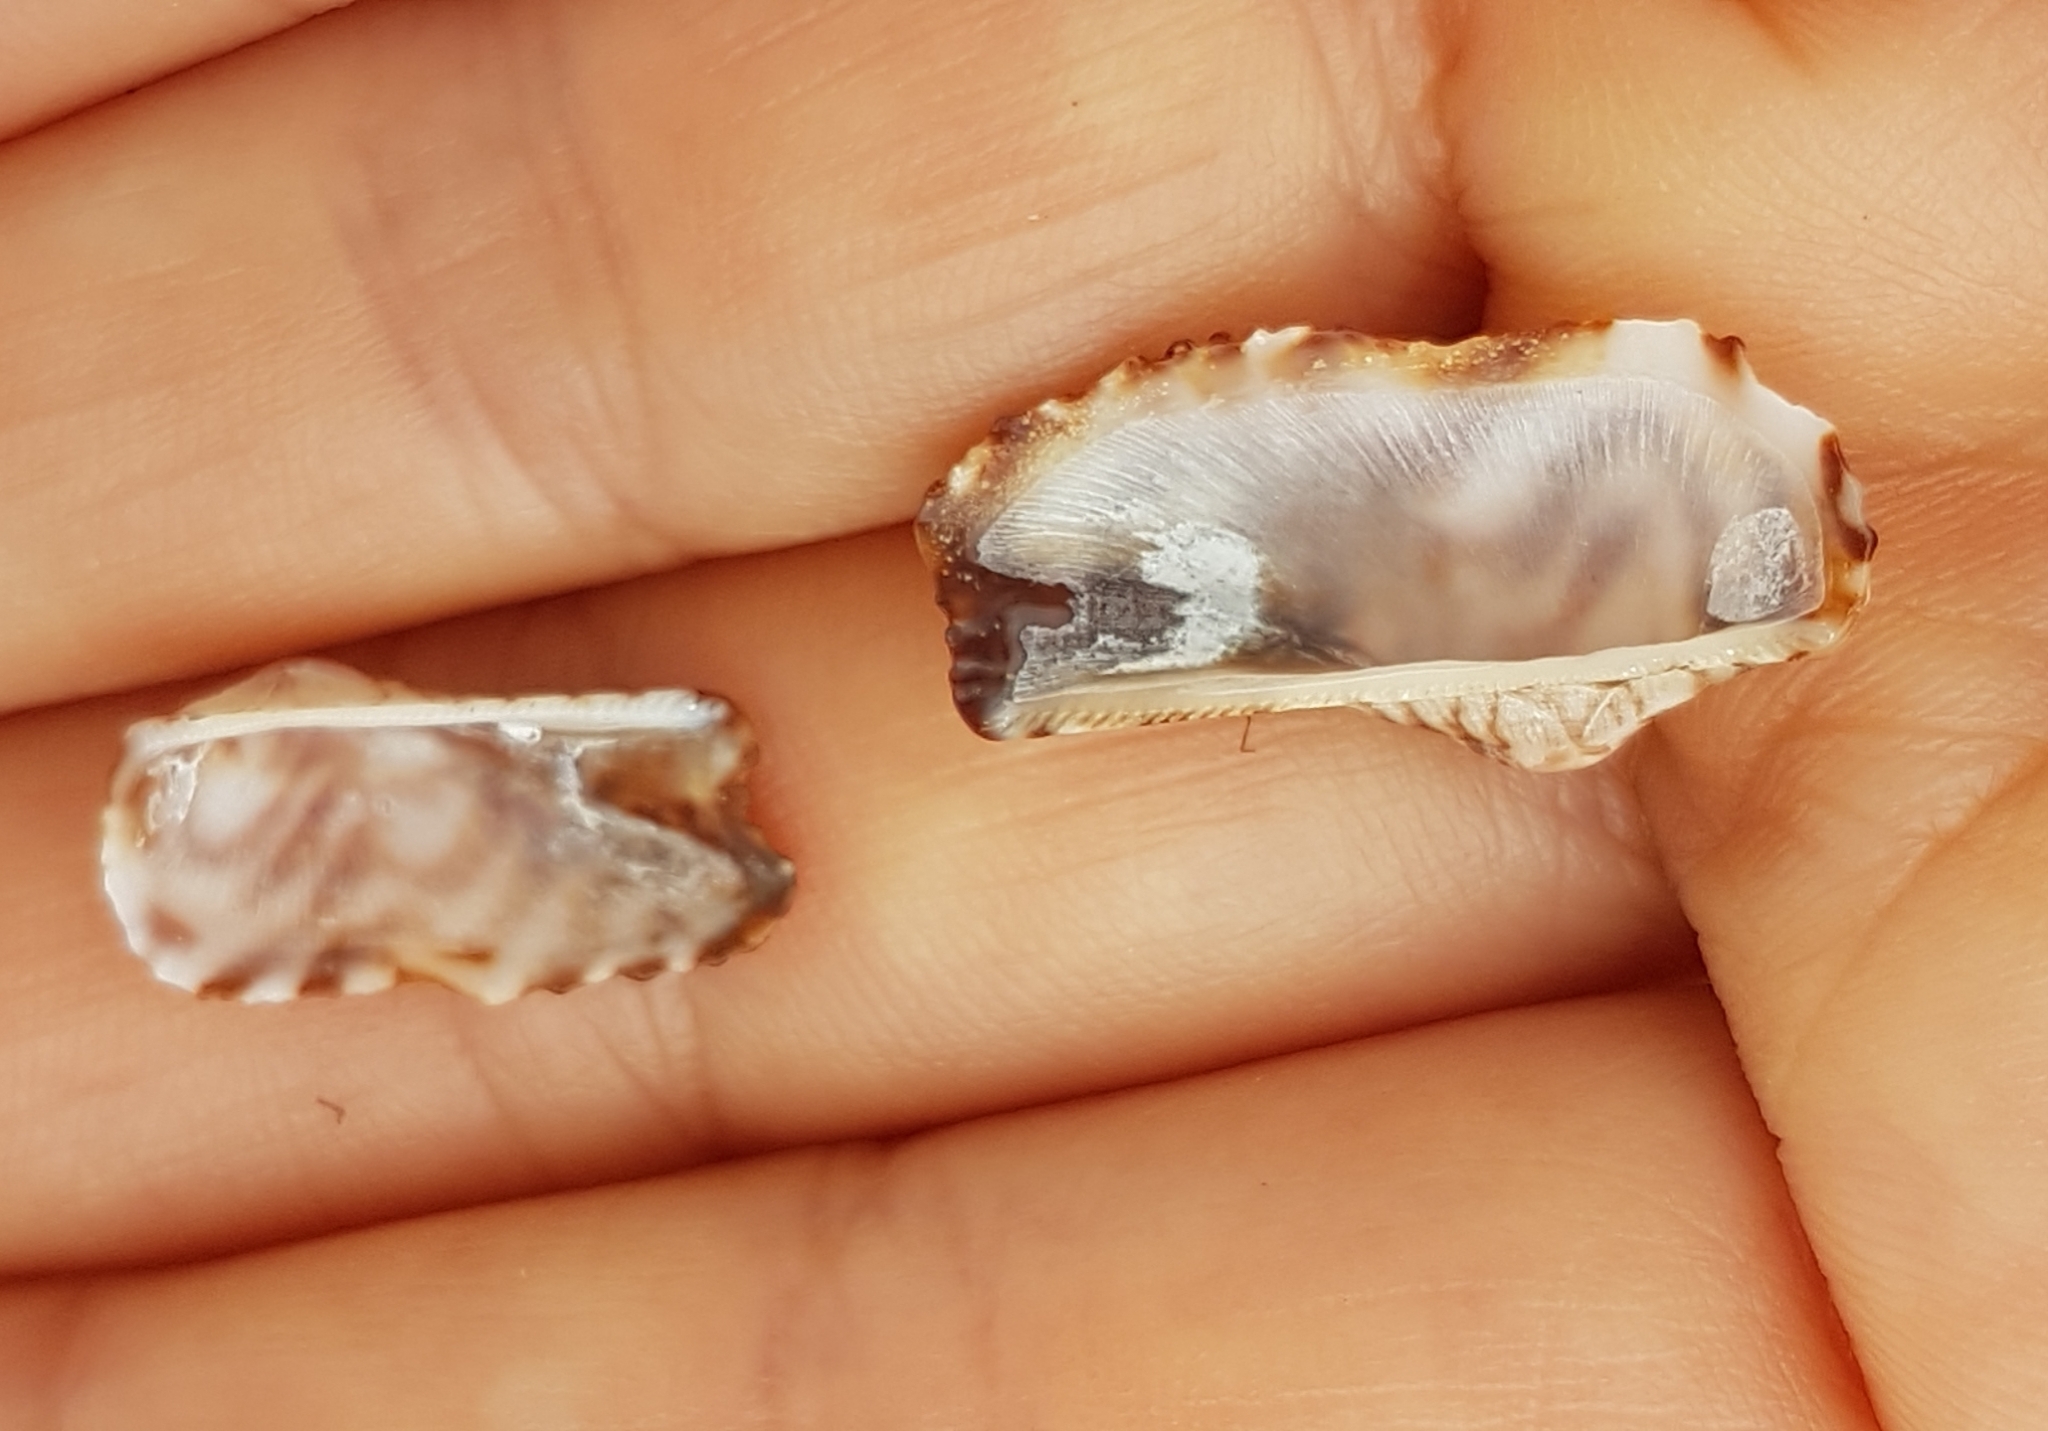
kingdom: Animalia
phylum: Mollusca
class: Bivalvia
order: Arcida
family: Arcidae
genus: Arca
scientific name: Arca noae
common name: Noah's arch
